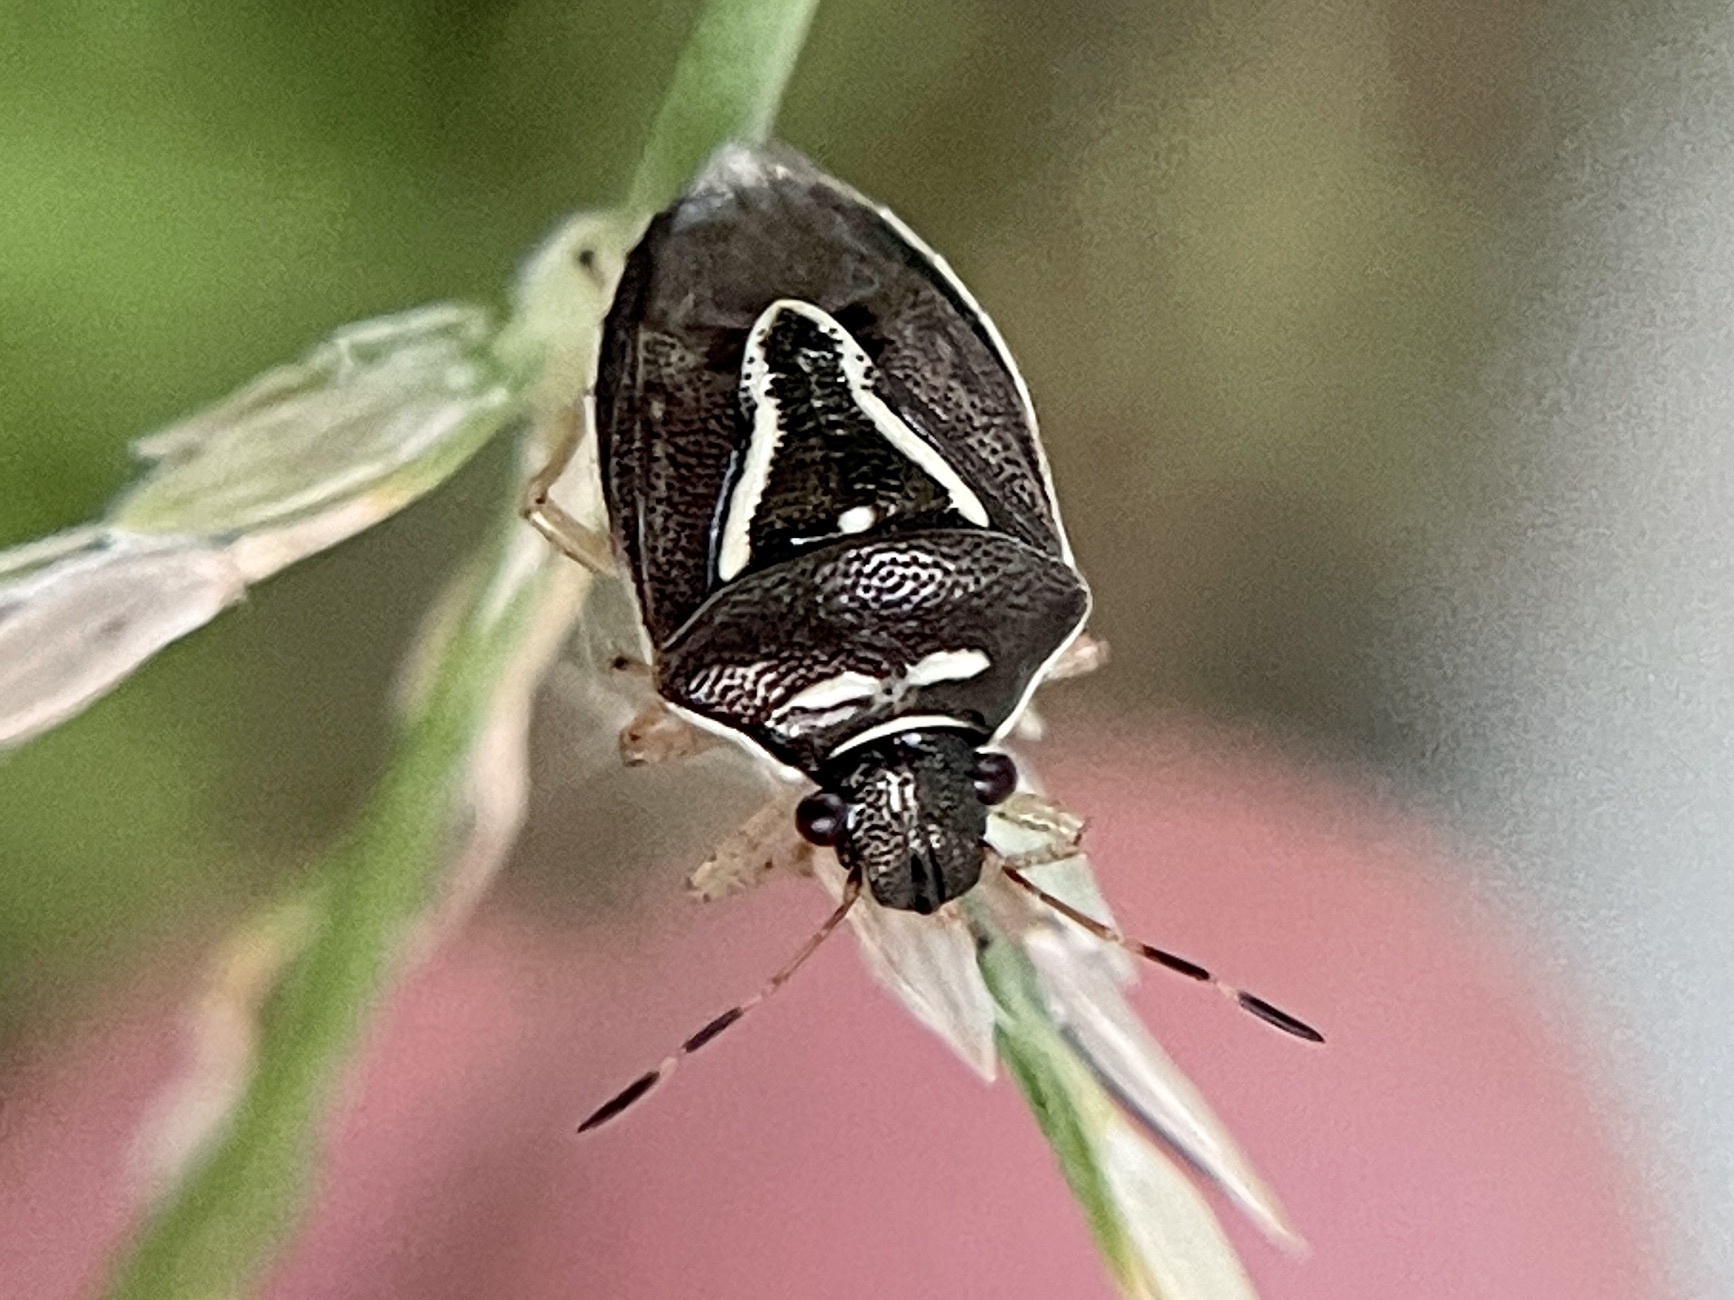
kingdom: Animalia
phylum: Arthropoda
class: Insecta
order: Hemiptera
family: Pentatomidae
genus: Mormidea
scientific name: Mormidea lugens
